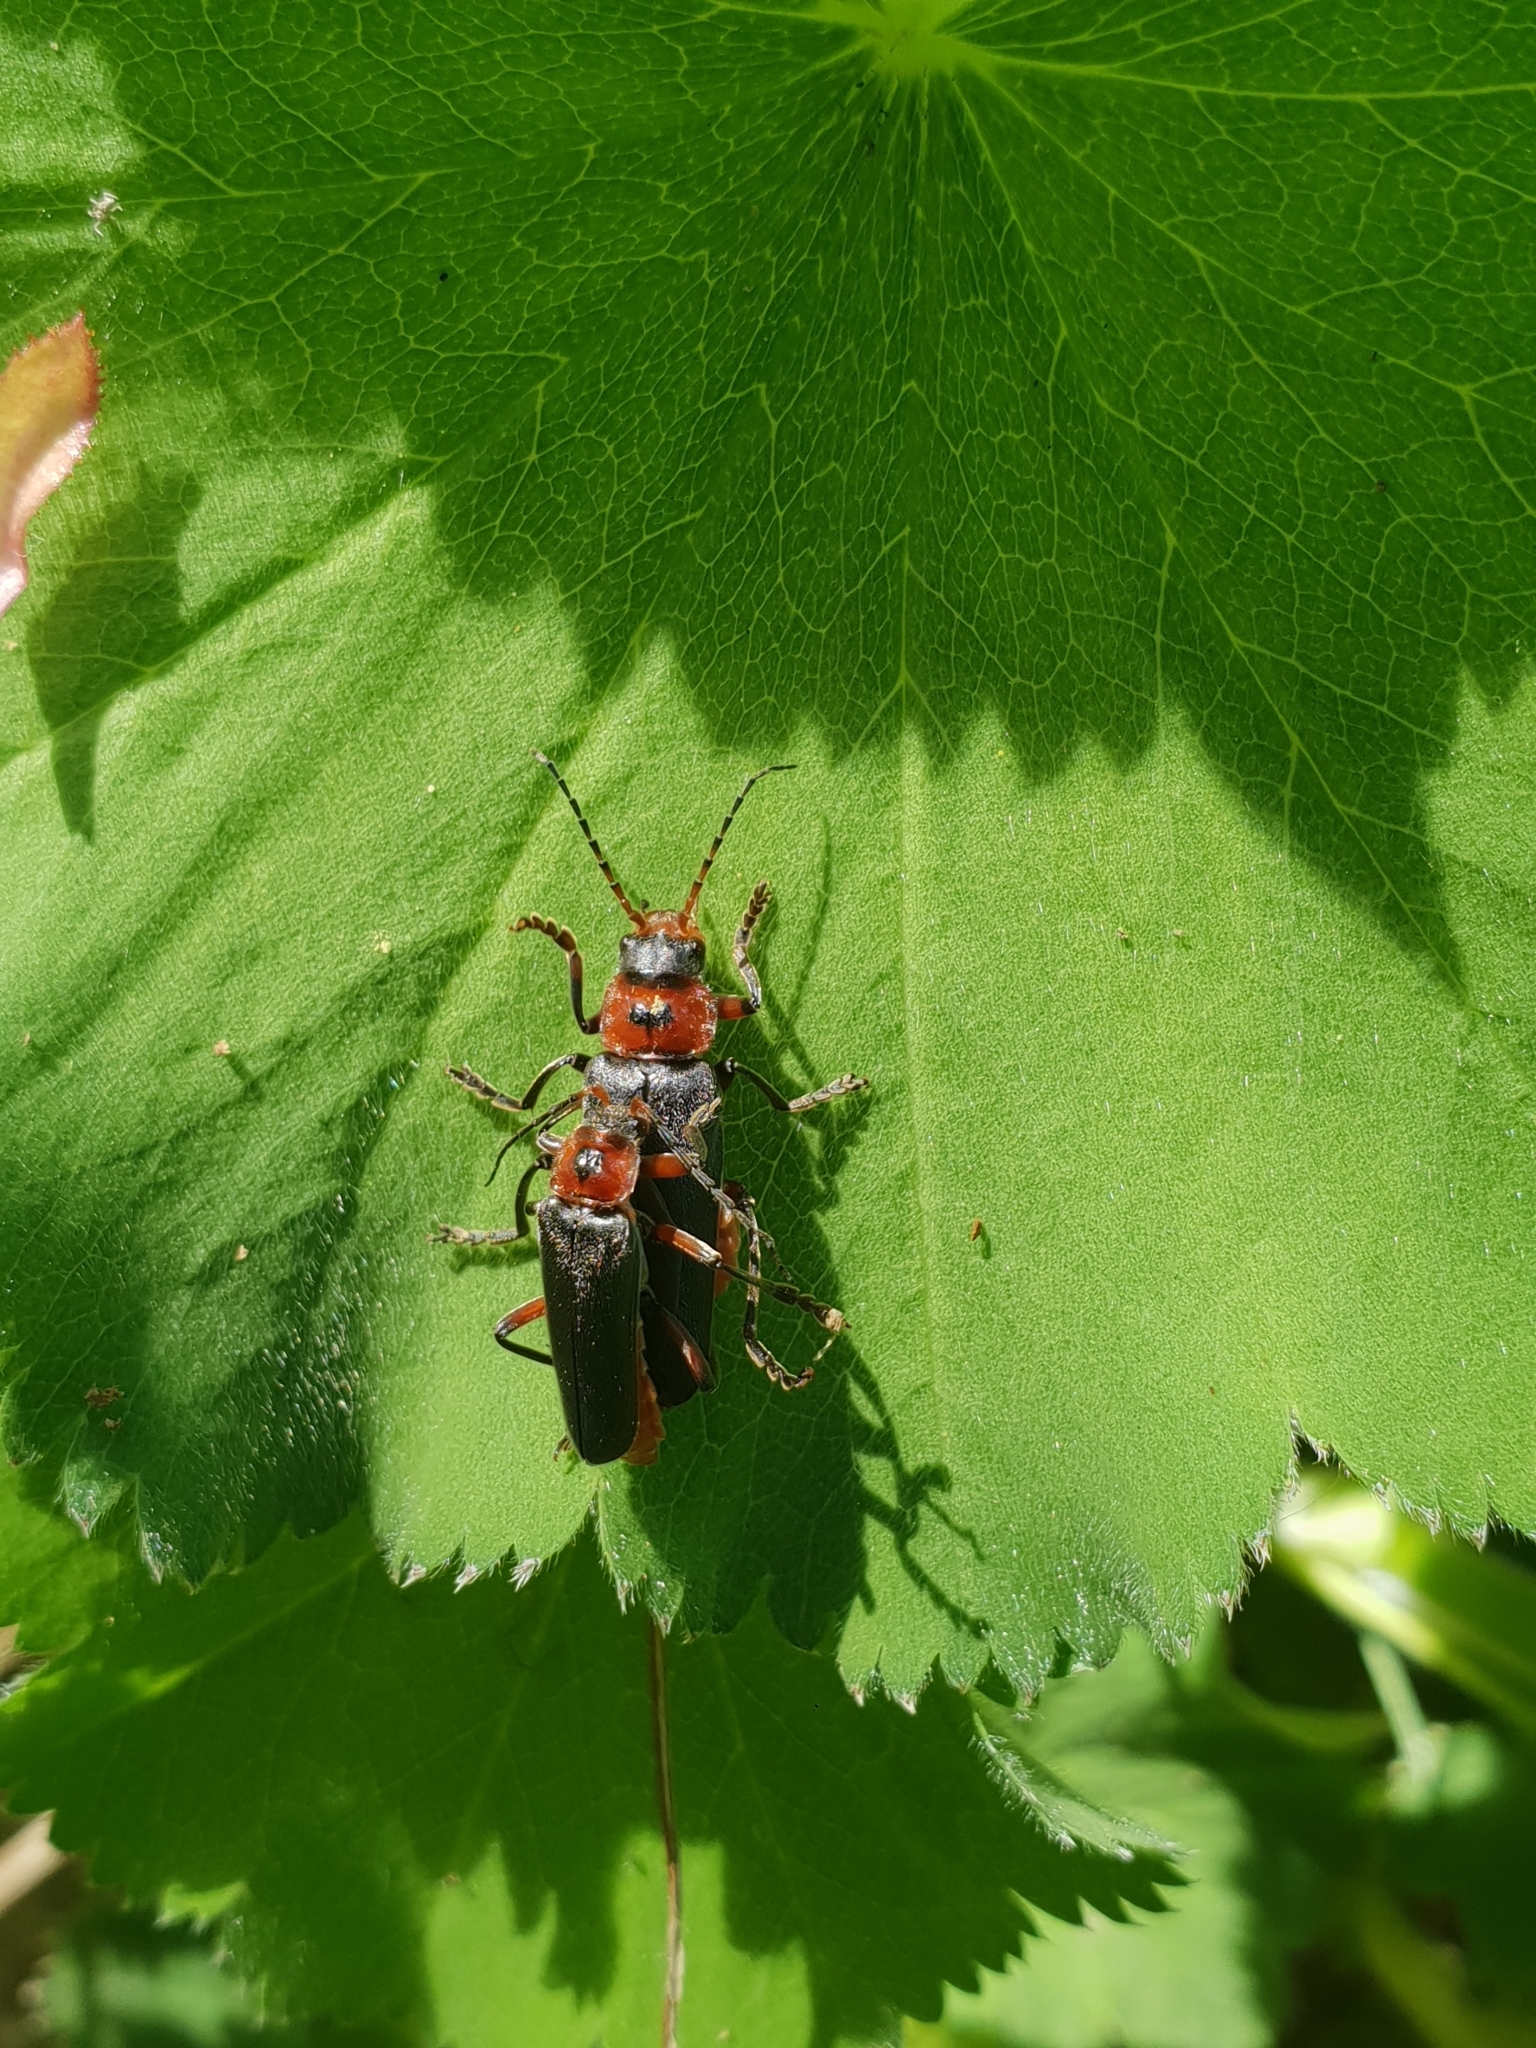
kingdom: Animalia
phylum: Arthropoda
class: Insecta
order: Coleoptera
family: Cantharidae
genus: Cantharis
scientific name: Cantharis rustica
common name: Soldier beetle
